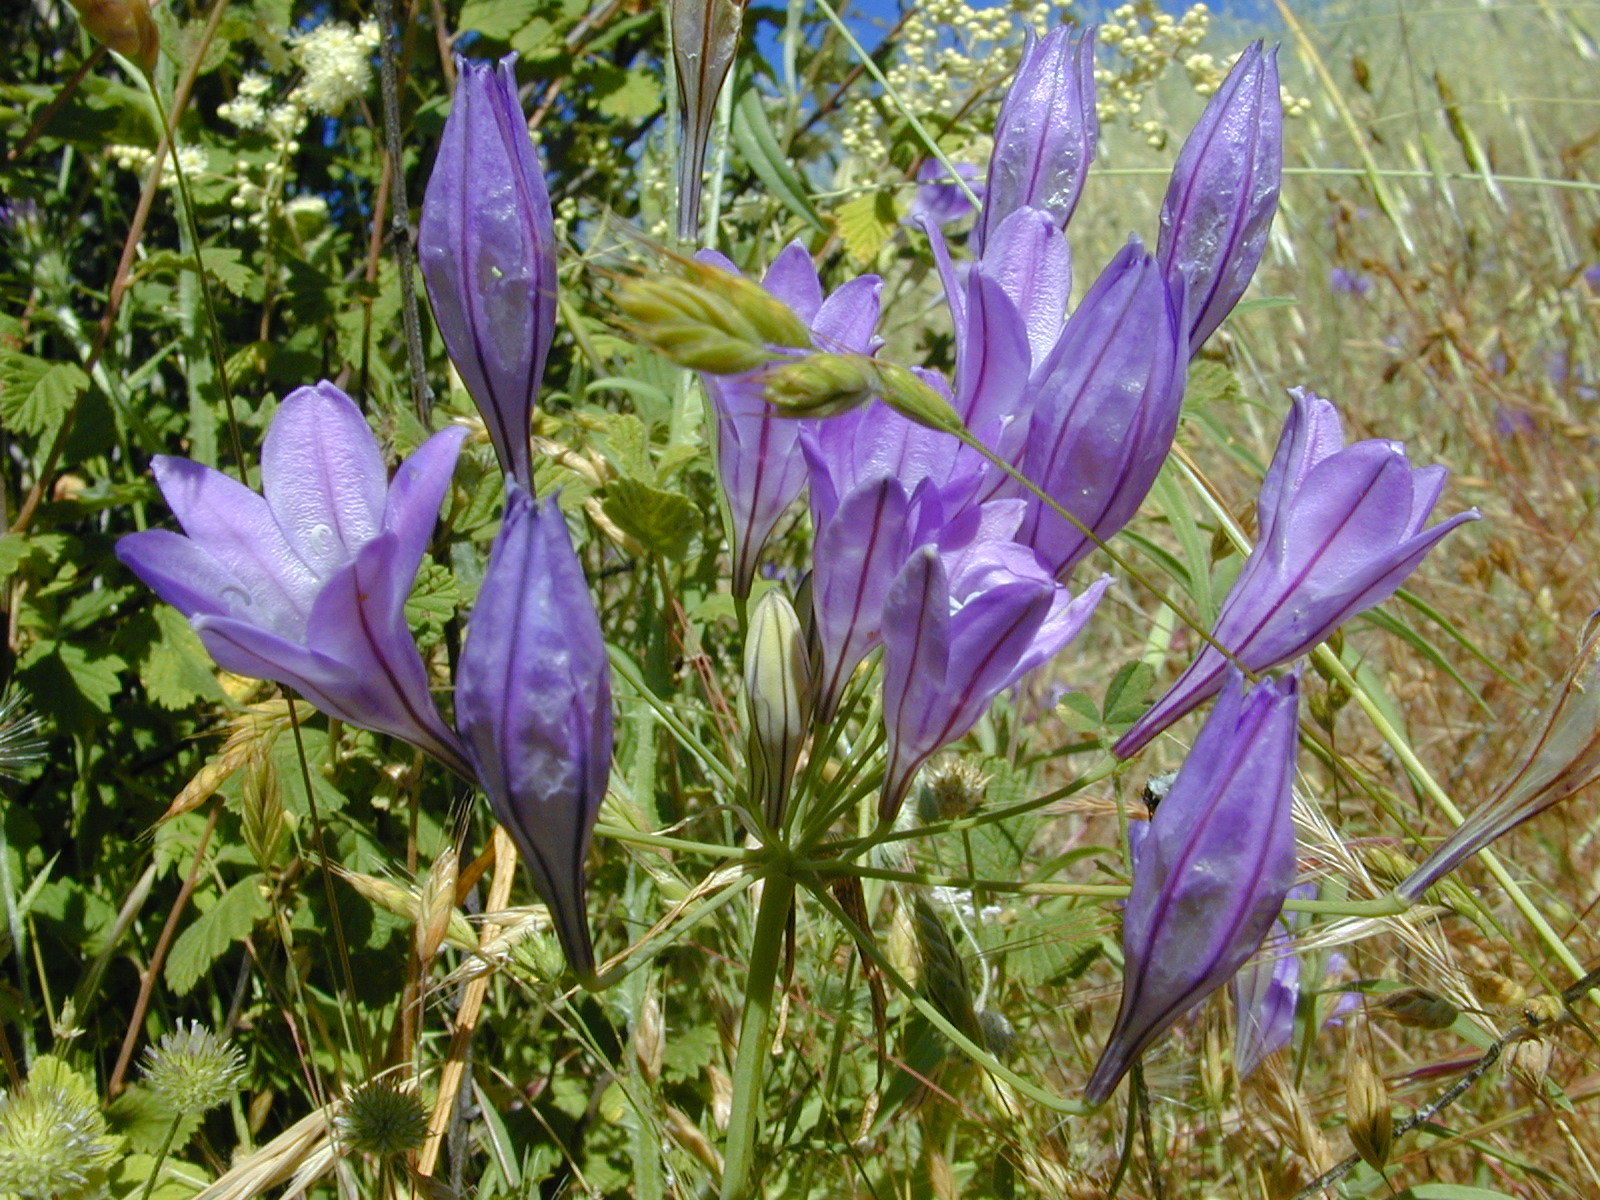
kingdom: Plantae
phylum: Tracheophyta
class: Liliopsida
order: Asparagales
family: Asparagaceae
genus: Triteleia
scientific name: Triteleia laxa
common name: Triplet-lily
